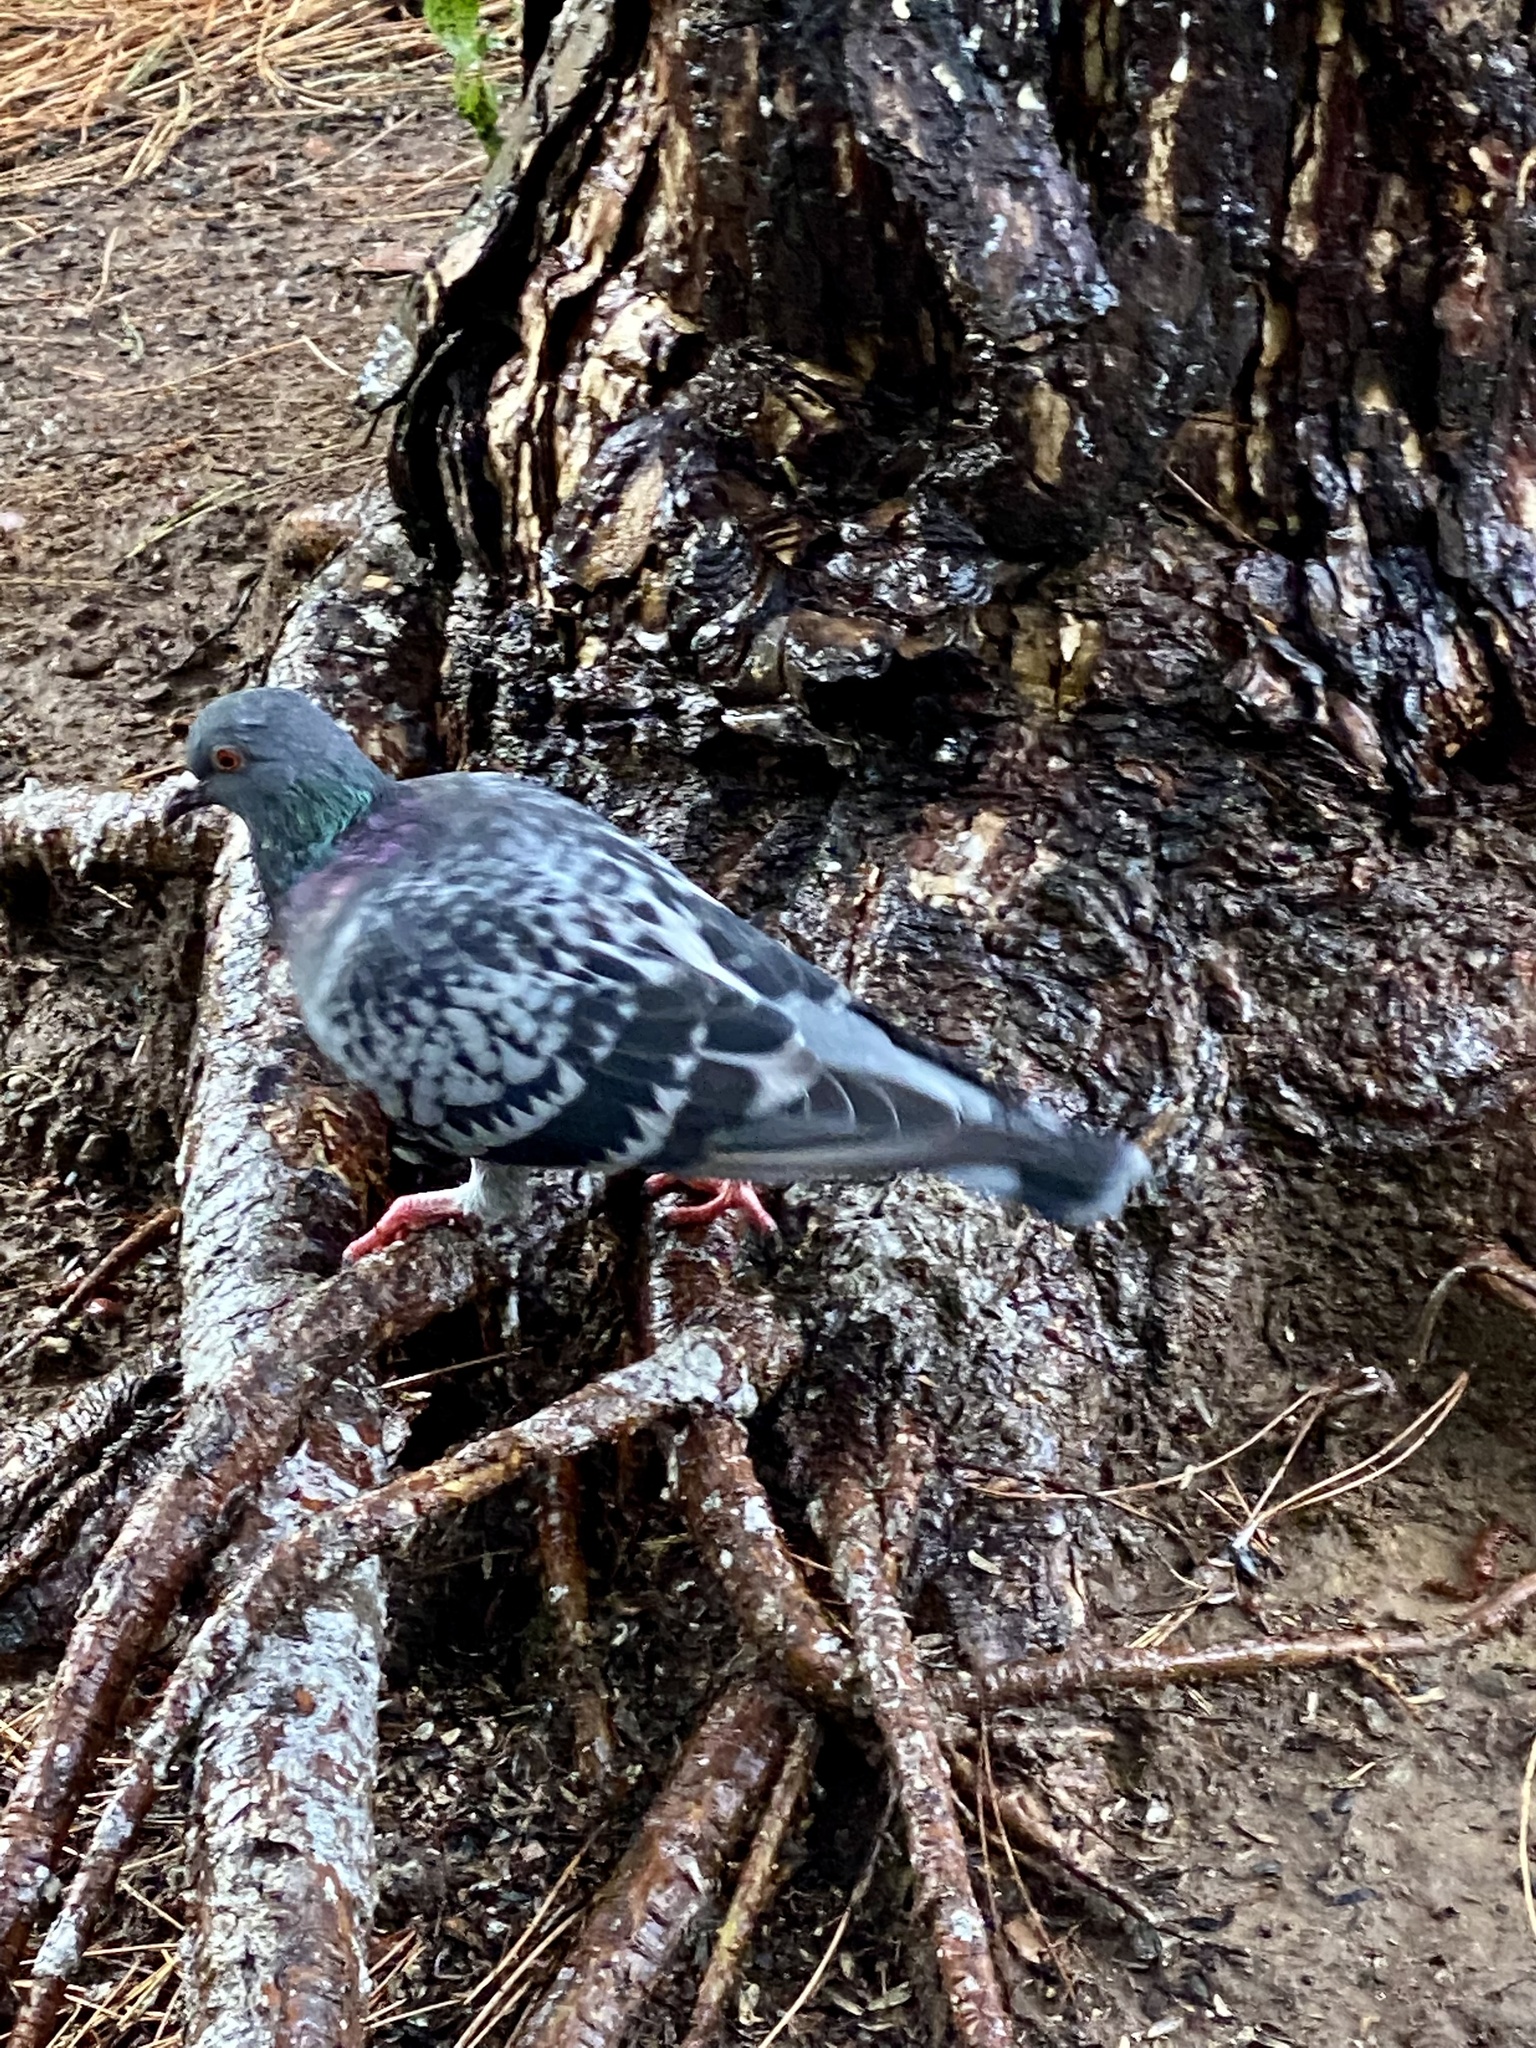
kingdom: Animalia
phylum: Chordata
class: Aves
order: Columbiformes
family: Columbidae
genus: Columba
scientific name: Columba livia
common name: Rock pigeon
